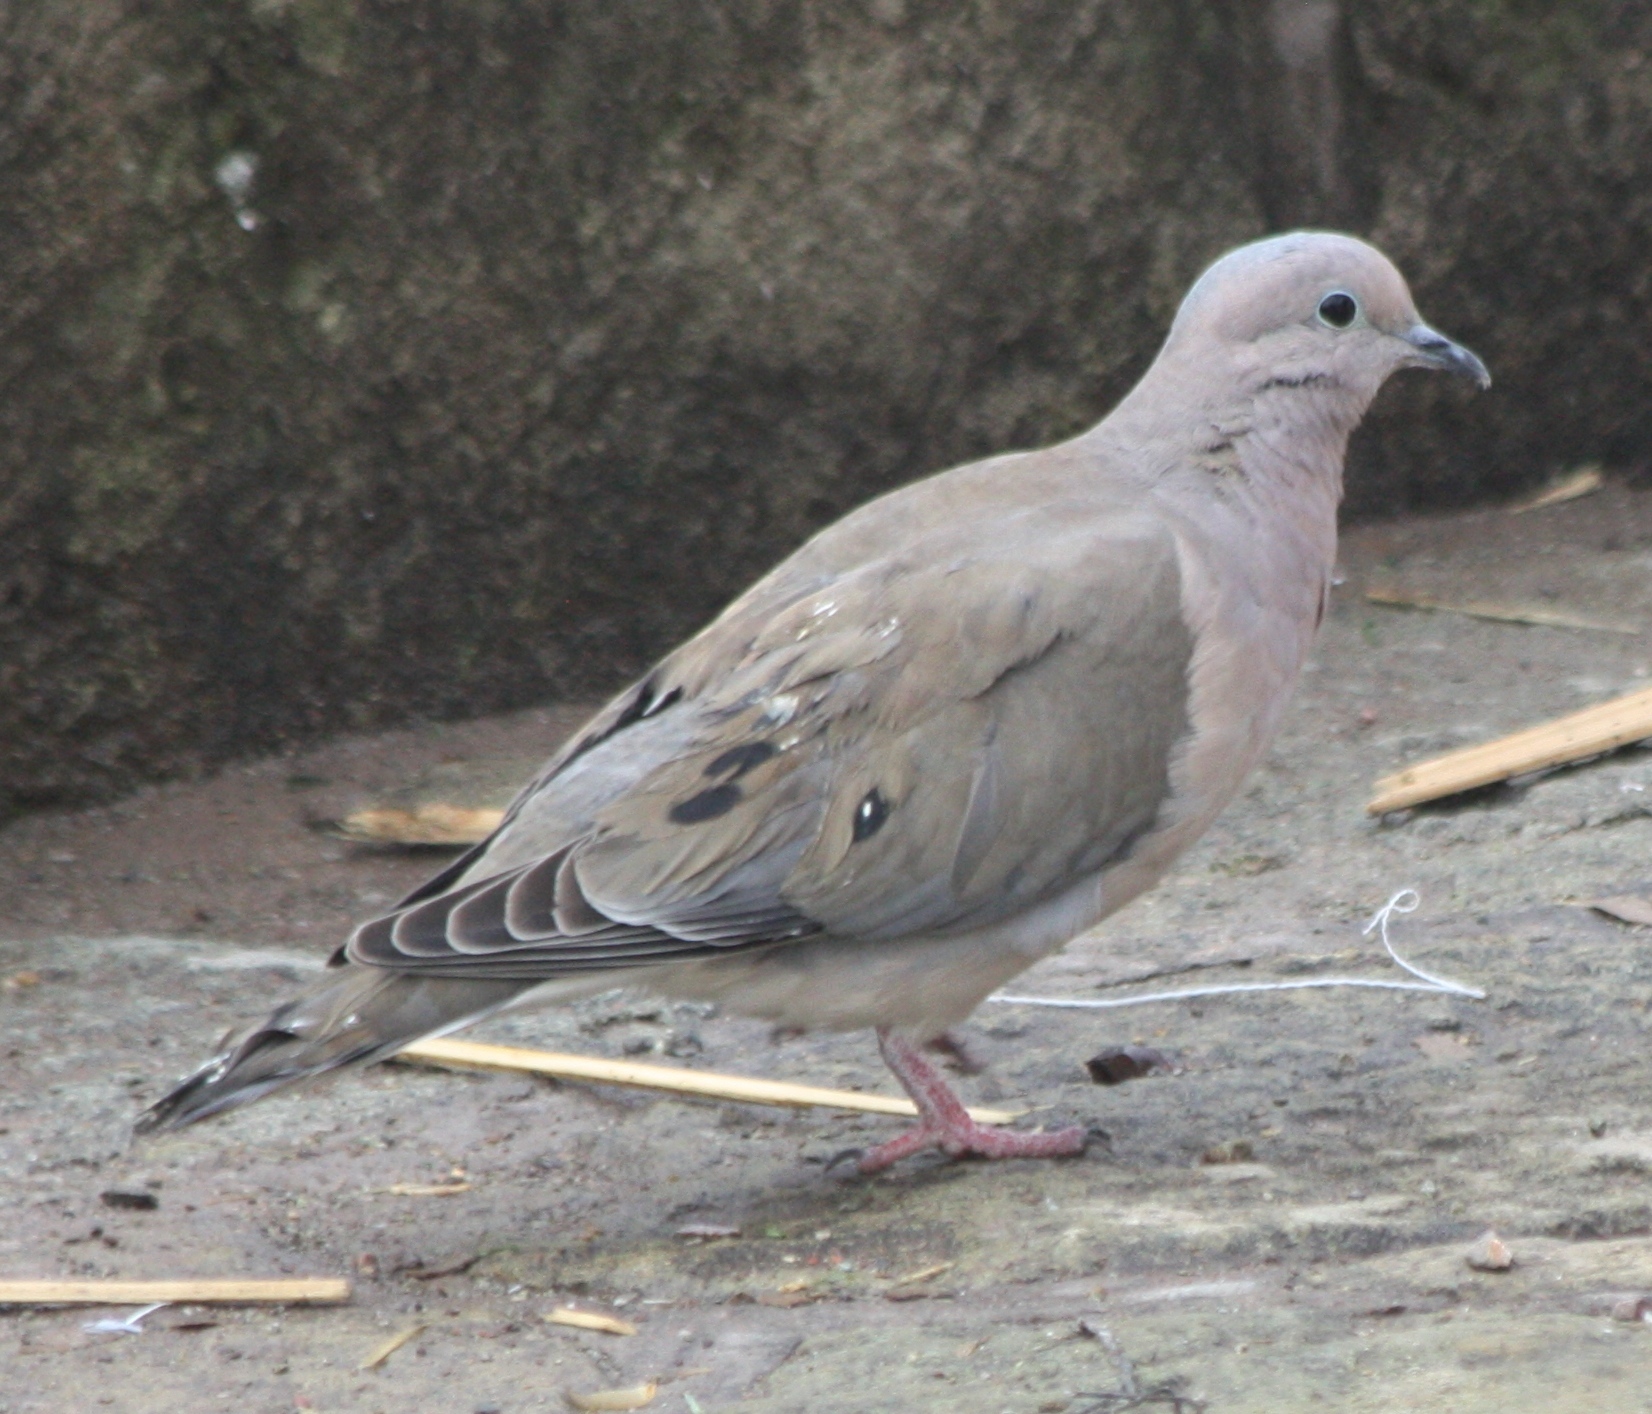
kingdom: Animalia
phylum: Chordata
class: Aves
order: Columbiformes
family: Columbidae
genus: Zenaida
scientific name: Zenaida auriculata
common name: Eared dove
